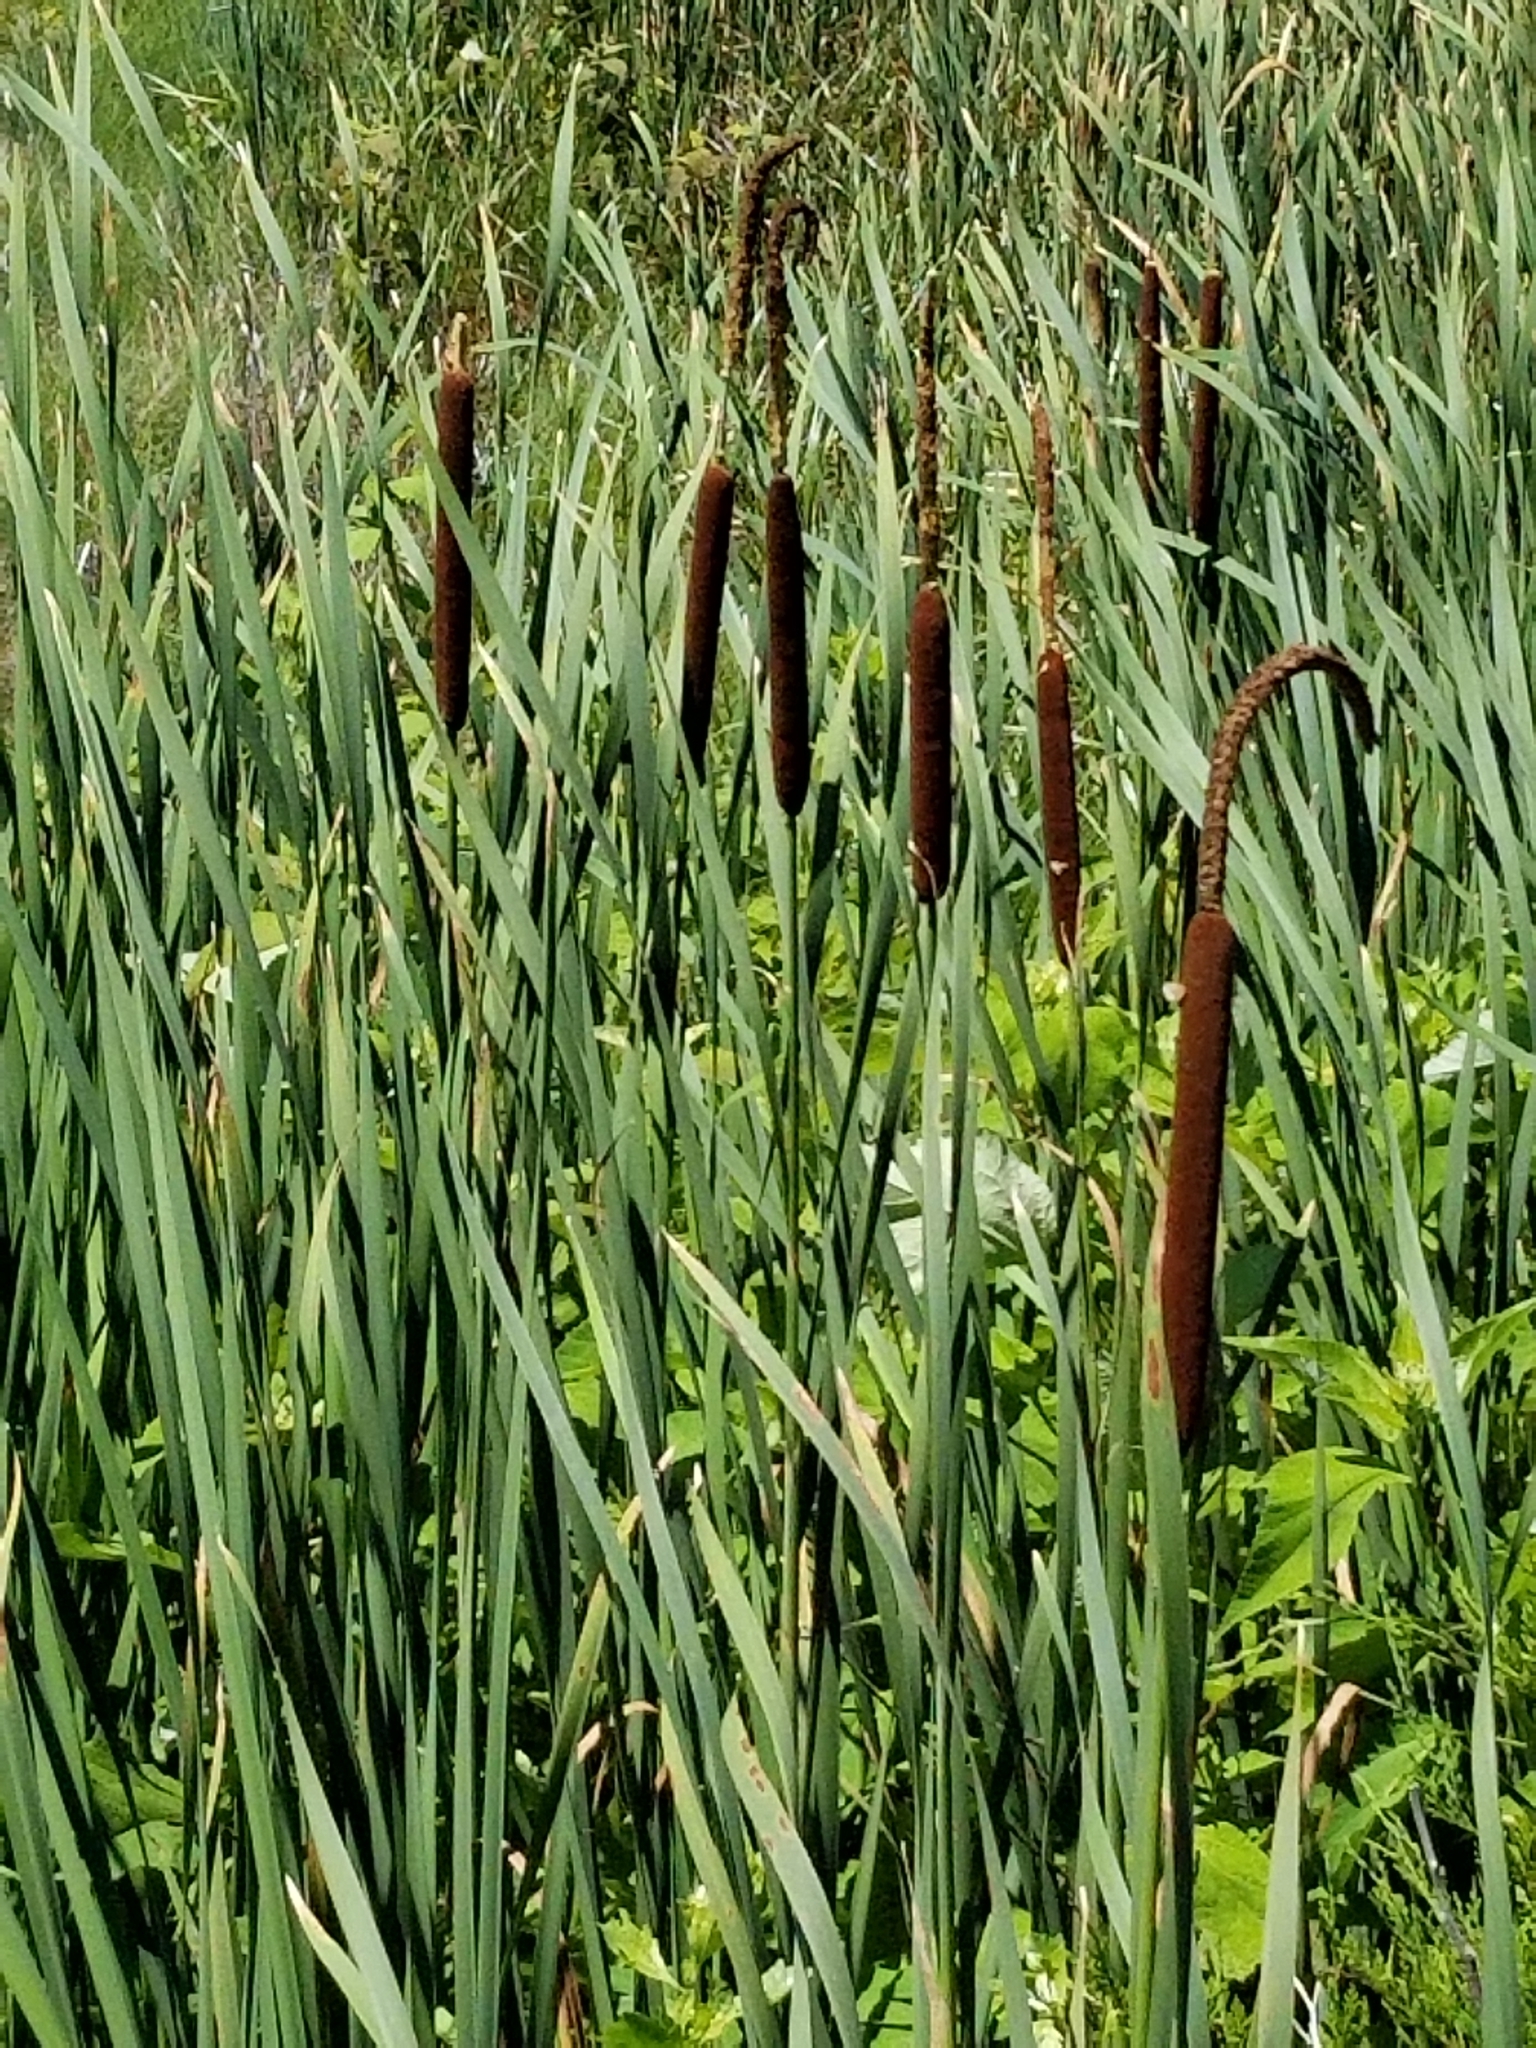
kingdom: Plantae
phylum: Tracheophyta
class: Liliopsida
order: Poales
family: Typhaceae
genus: Typha
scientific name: Typha latifolia
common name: Broadleaf cattail
